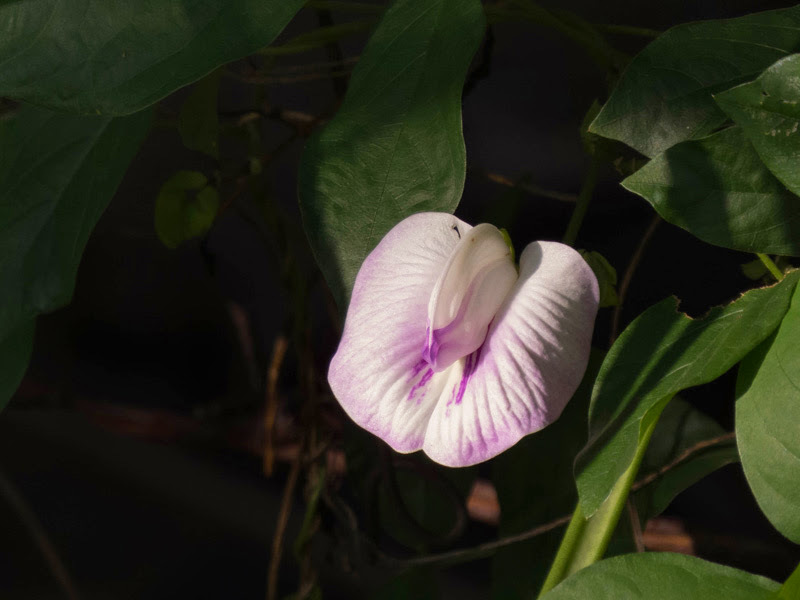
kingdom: Plantae
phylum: Tracheophyta
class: Magnoliopsida
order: Fabales
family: Fabaceae
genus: Centrosema
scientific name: Centrosema pubescens
